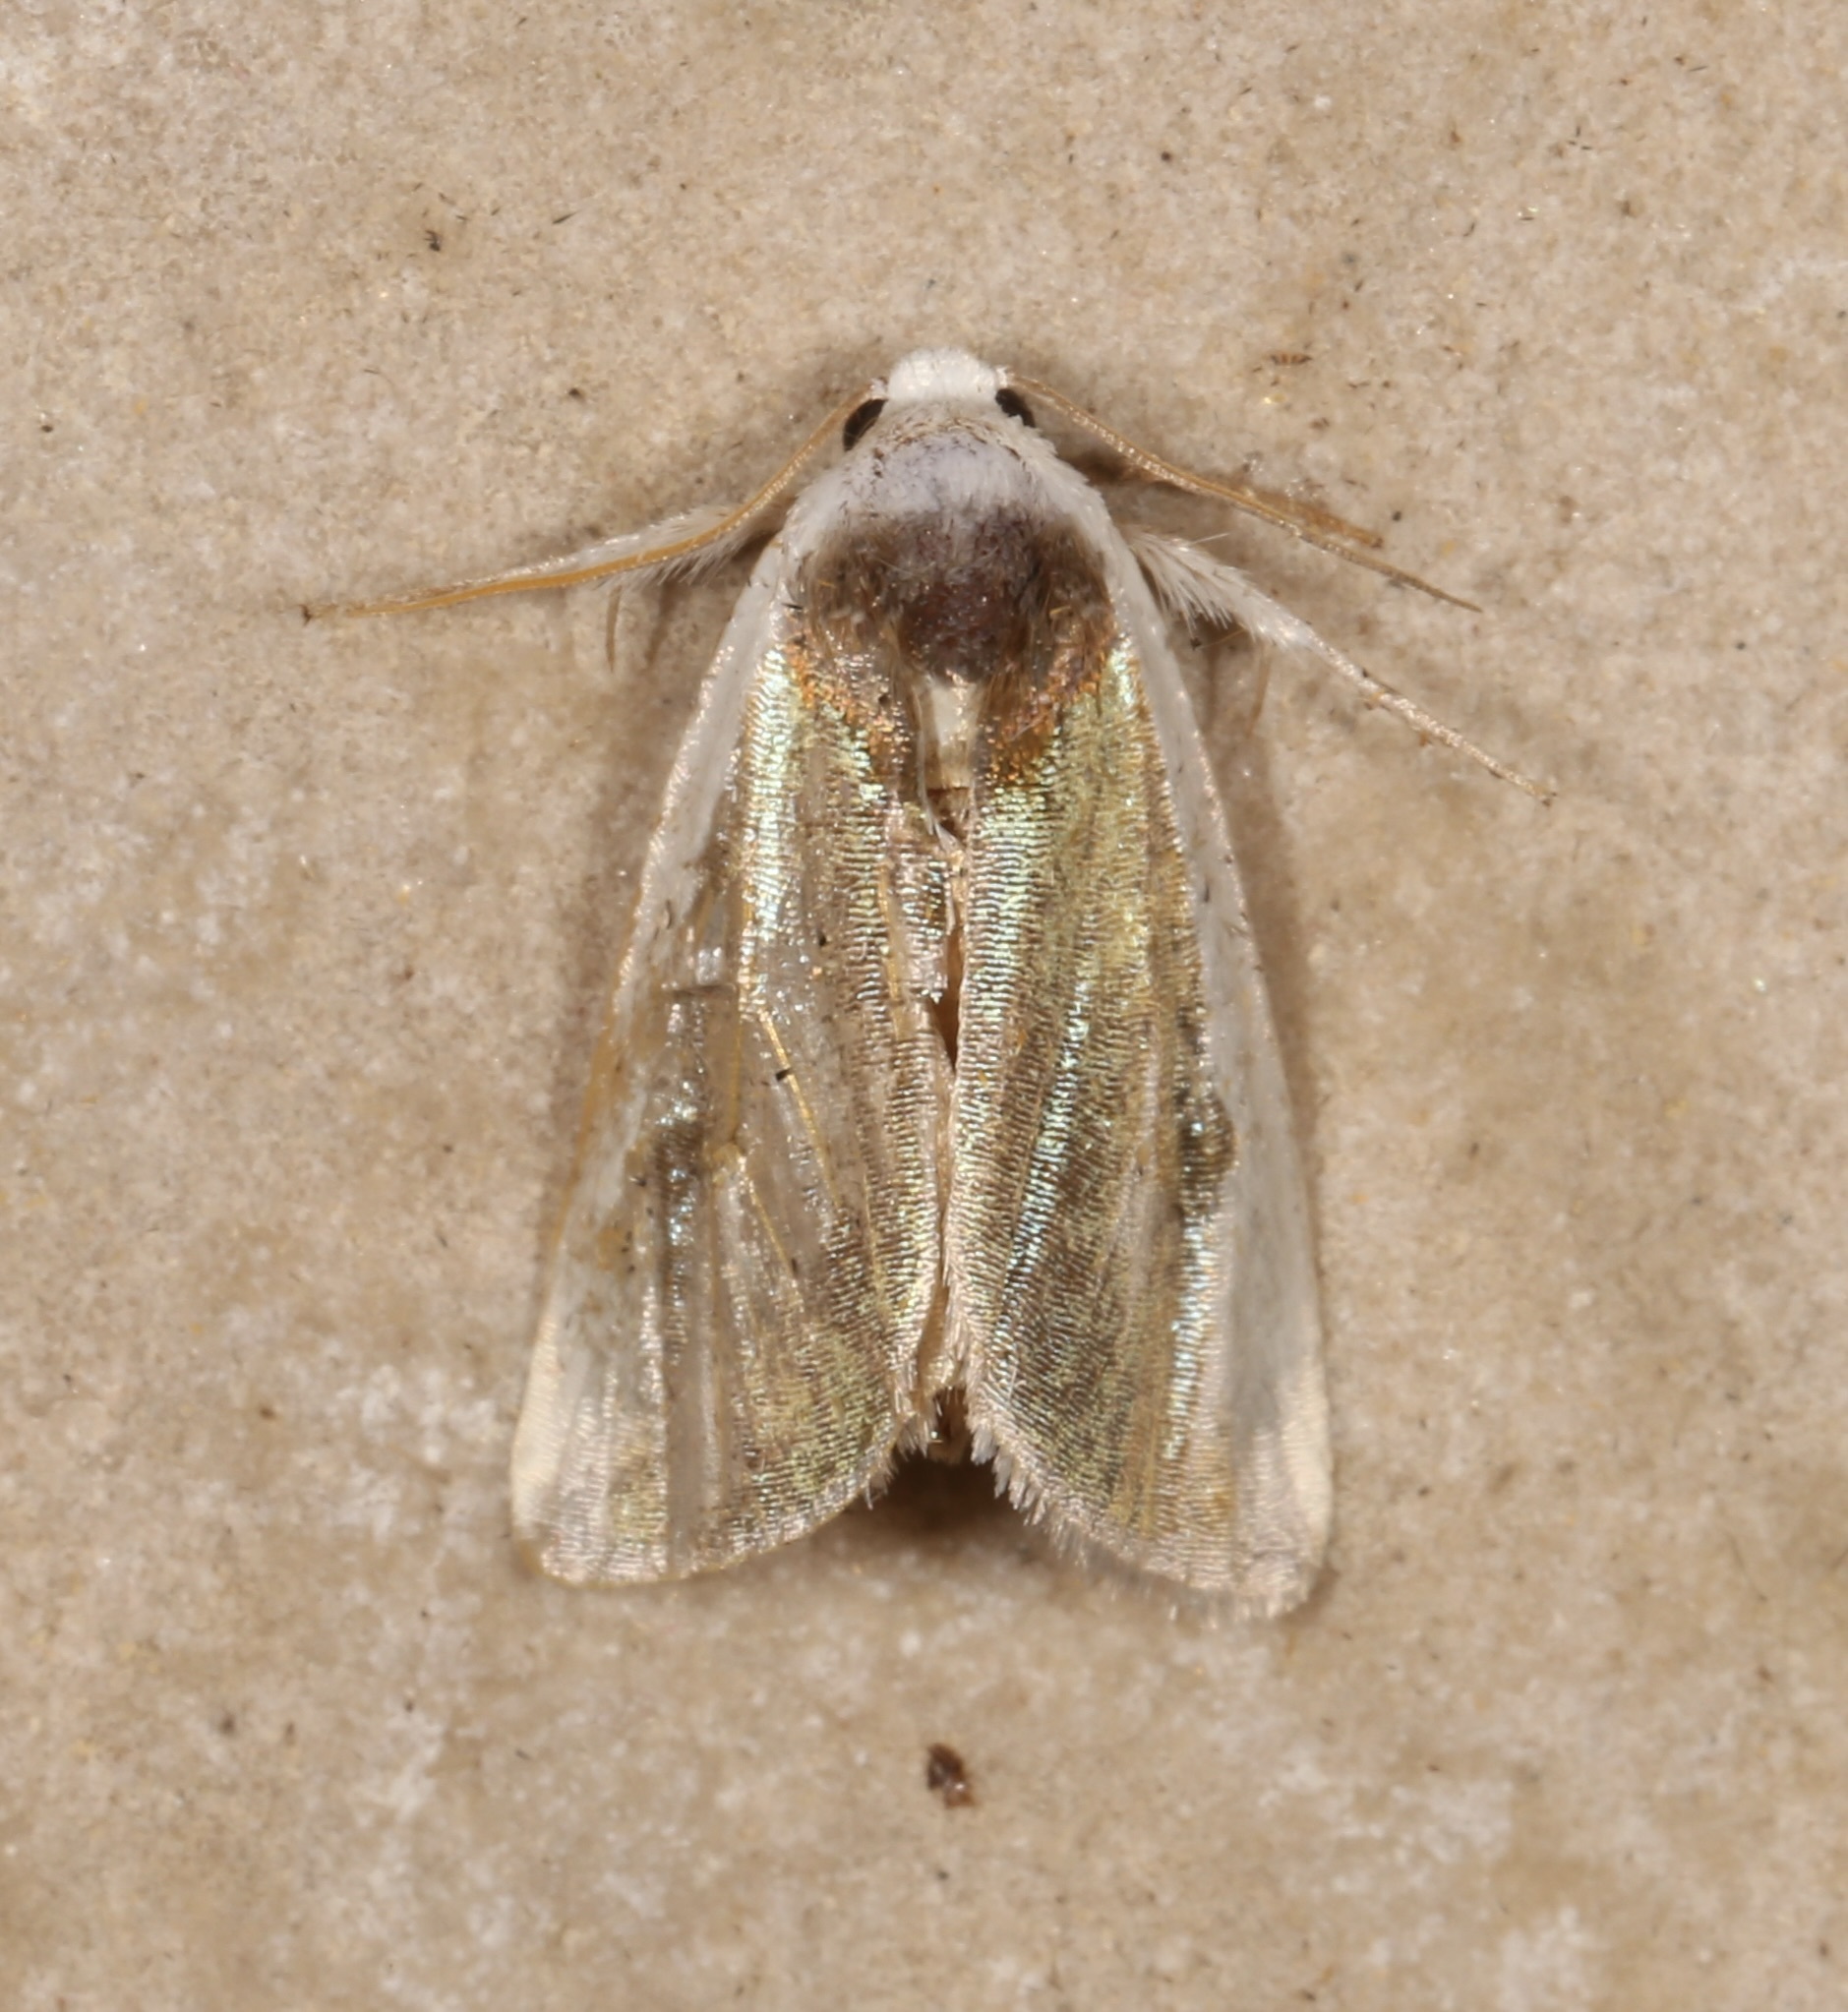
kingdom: Animalia
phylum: Arthropoda
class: Insecta
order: Lepidoptera
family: Noctuidae
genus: Neumoegenia
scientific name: Neumoegenia poetica
